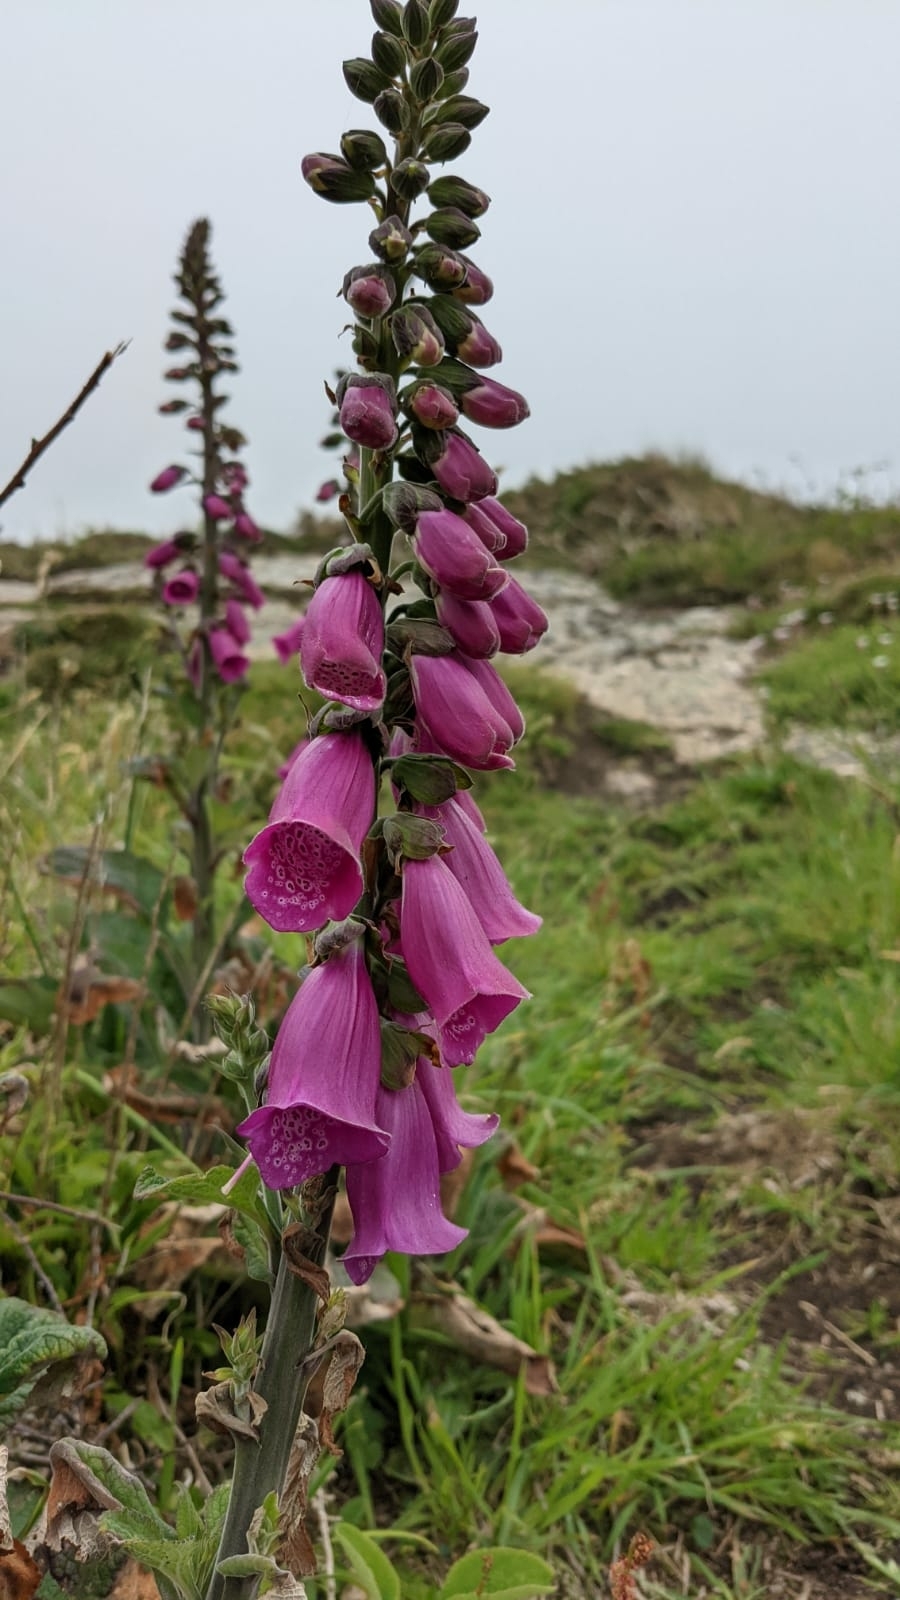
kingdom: Plantae
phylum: Tracheophyta
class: Magnoliopsida
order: Lamiales
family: Plantaginaceae
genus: Digitalis
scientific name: Digitalis purpurea
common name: Foxglove
